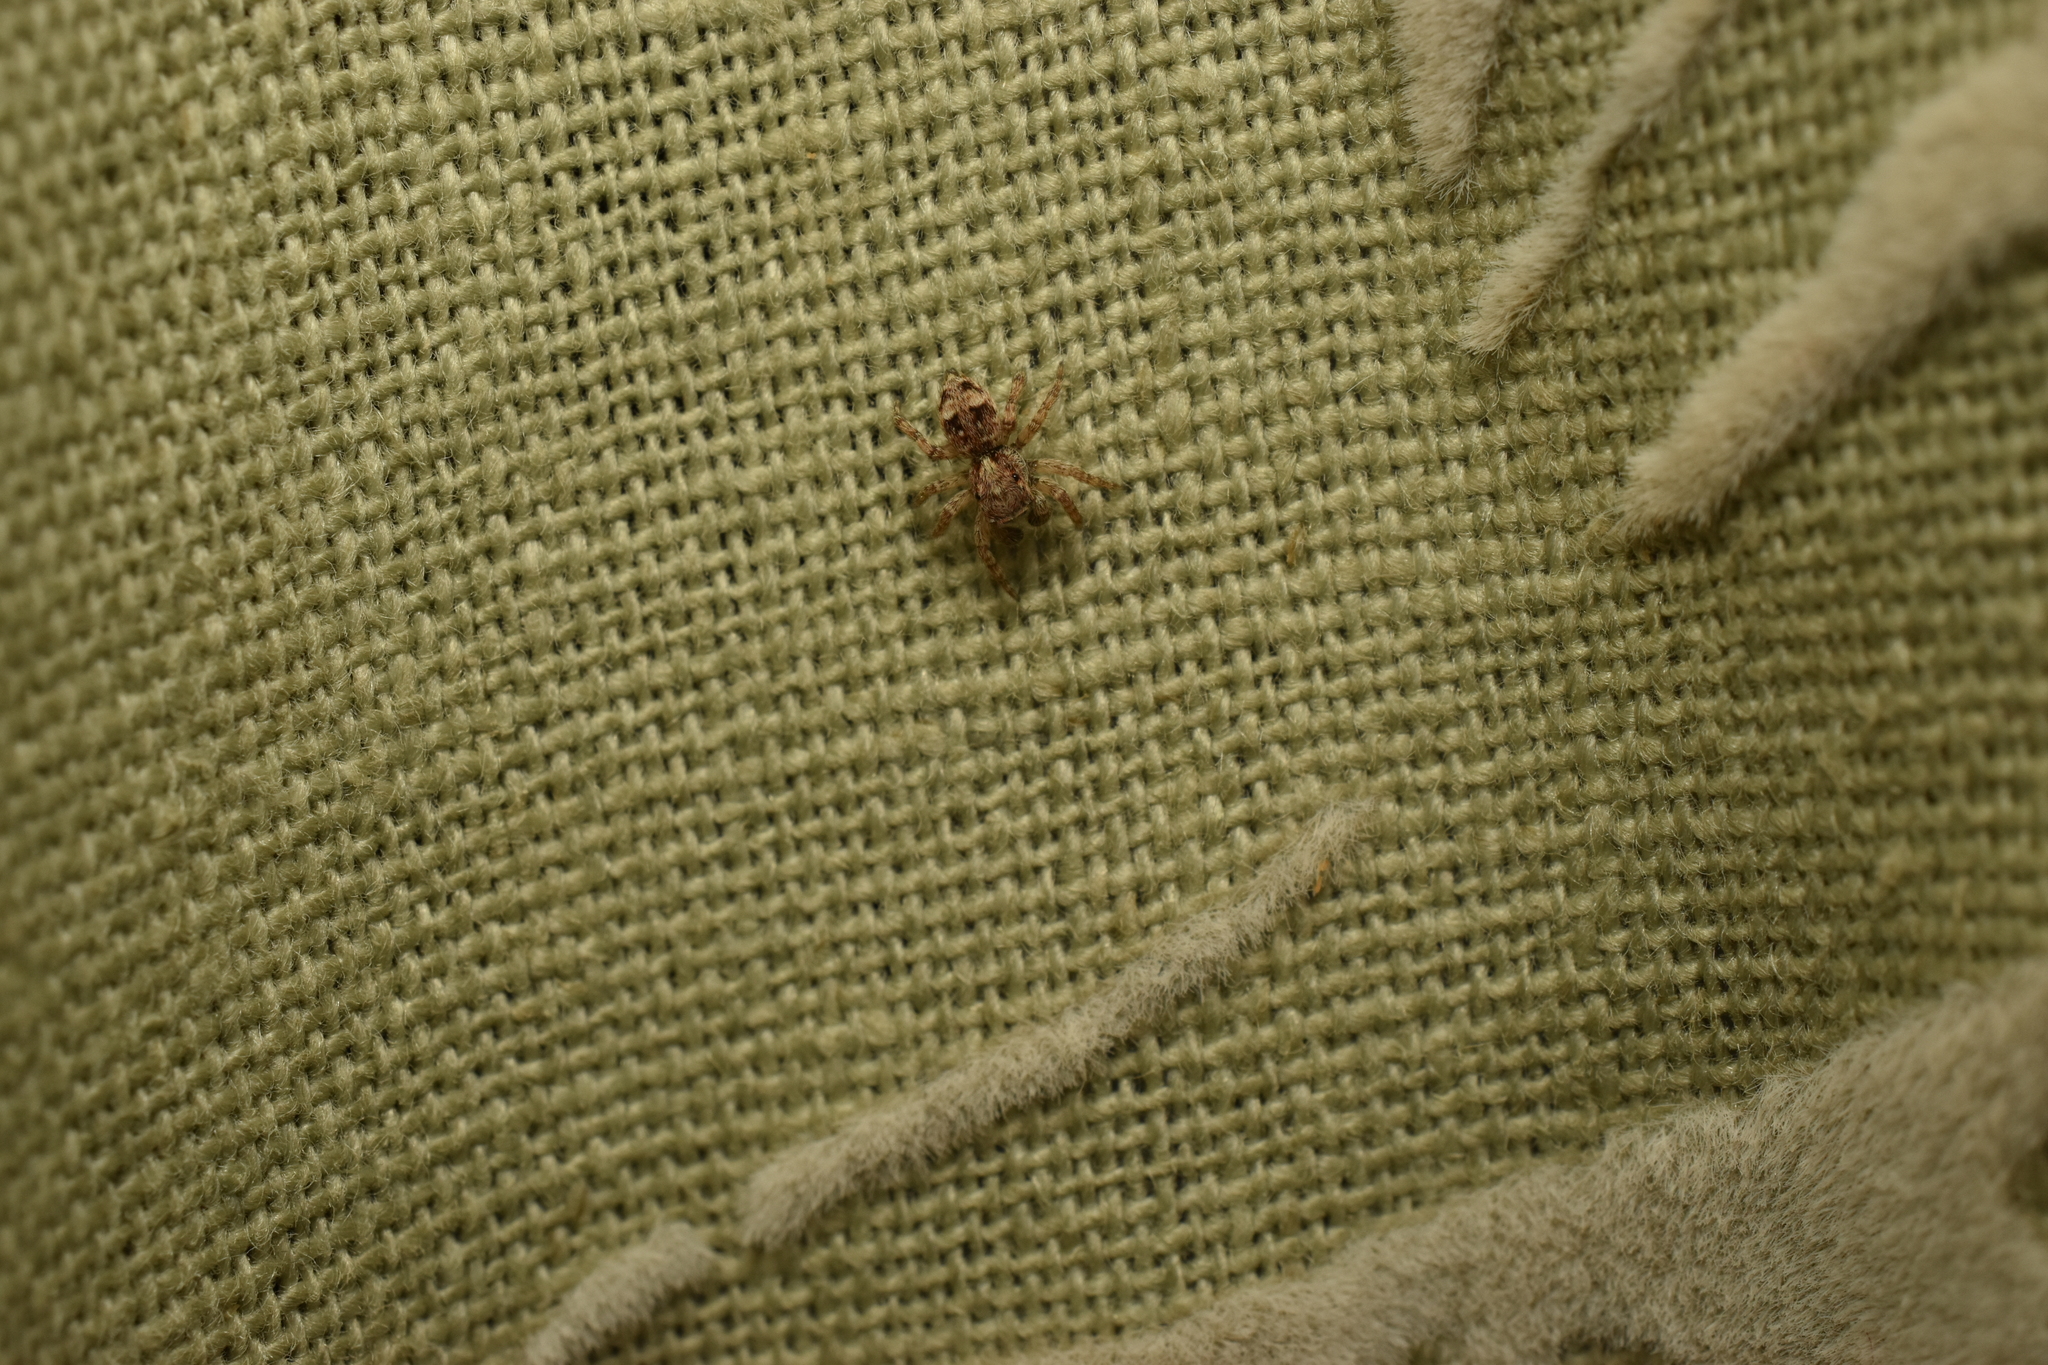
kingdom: Animalia
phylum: Arthropoda
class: Arachnida
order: Araneae
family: Salticidae
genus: Attulus
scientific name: Attulus fasciger
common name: Asiatic wall jumping spider
